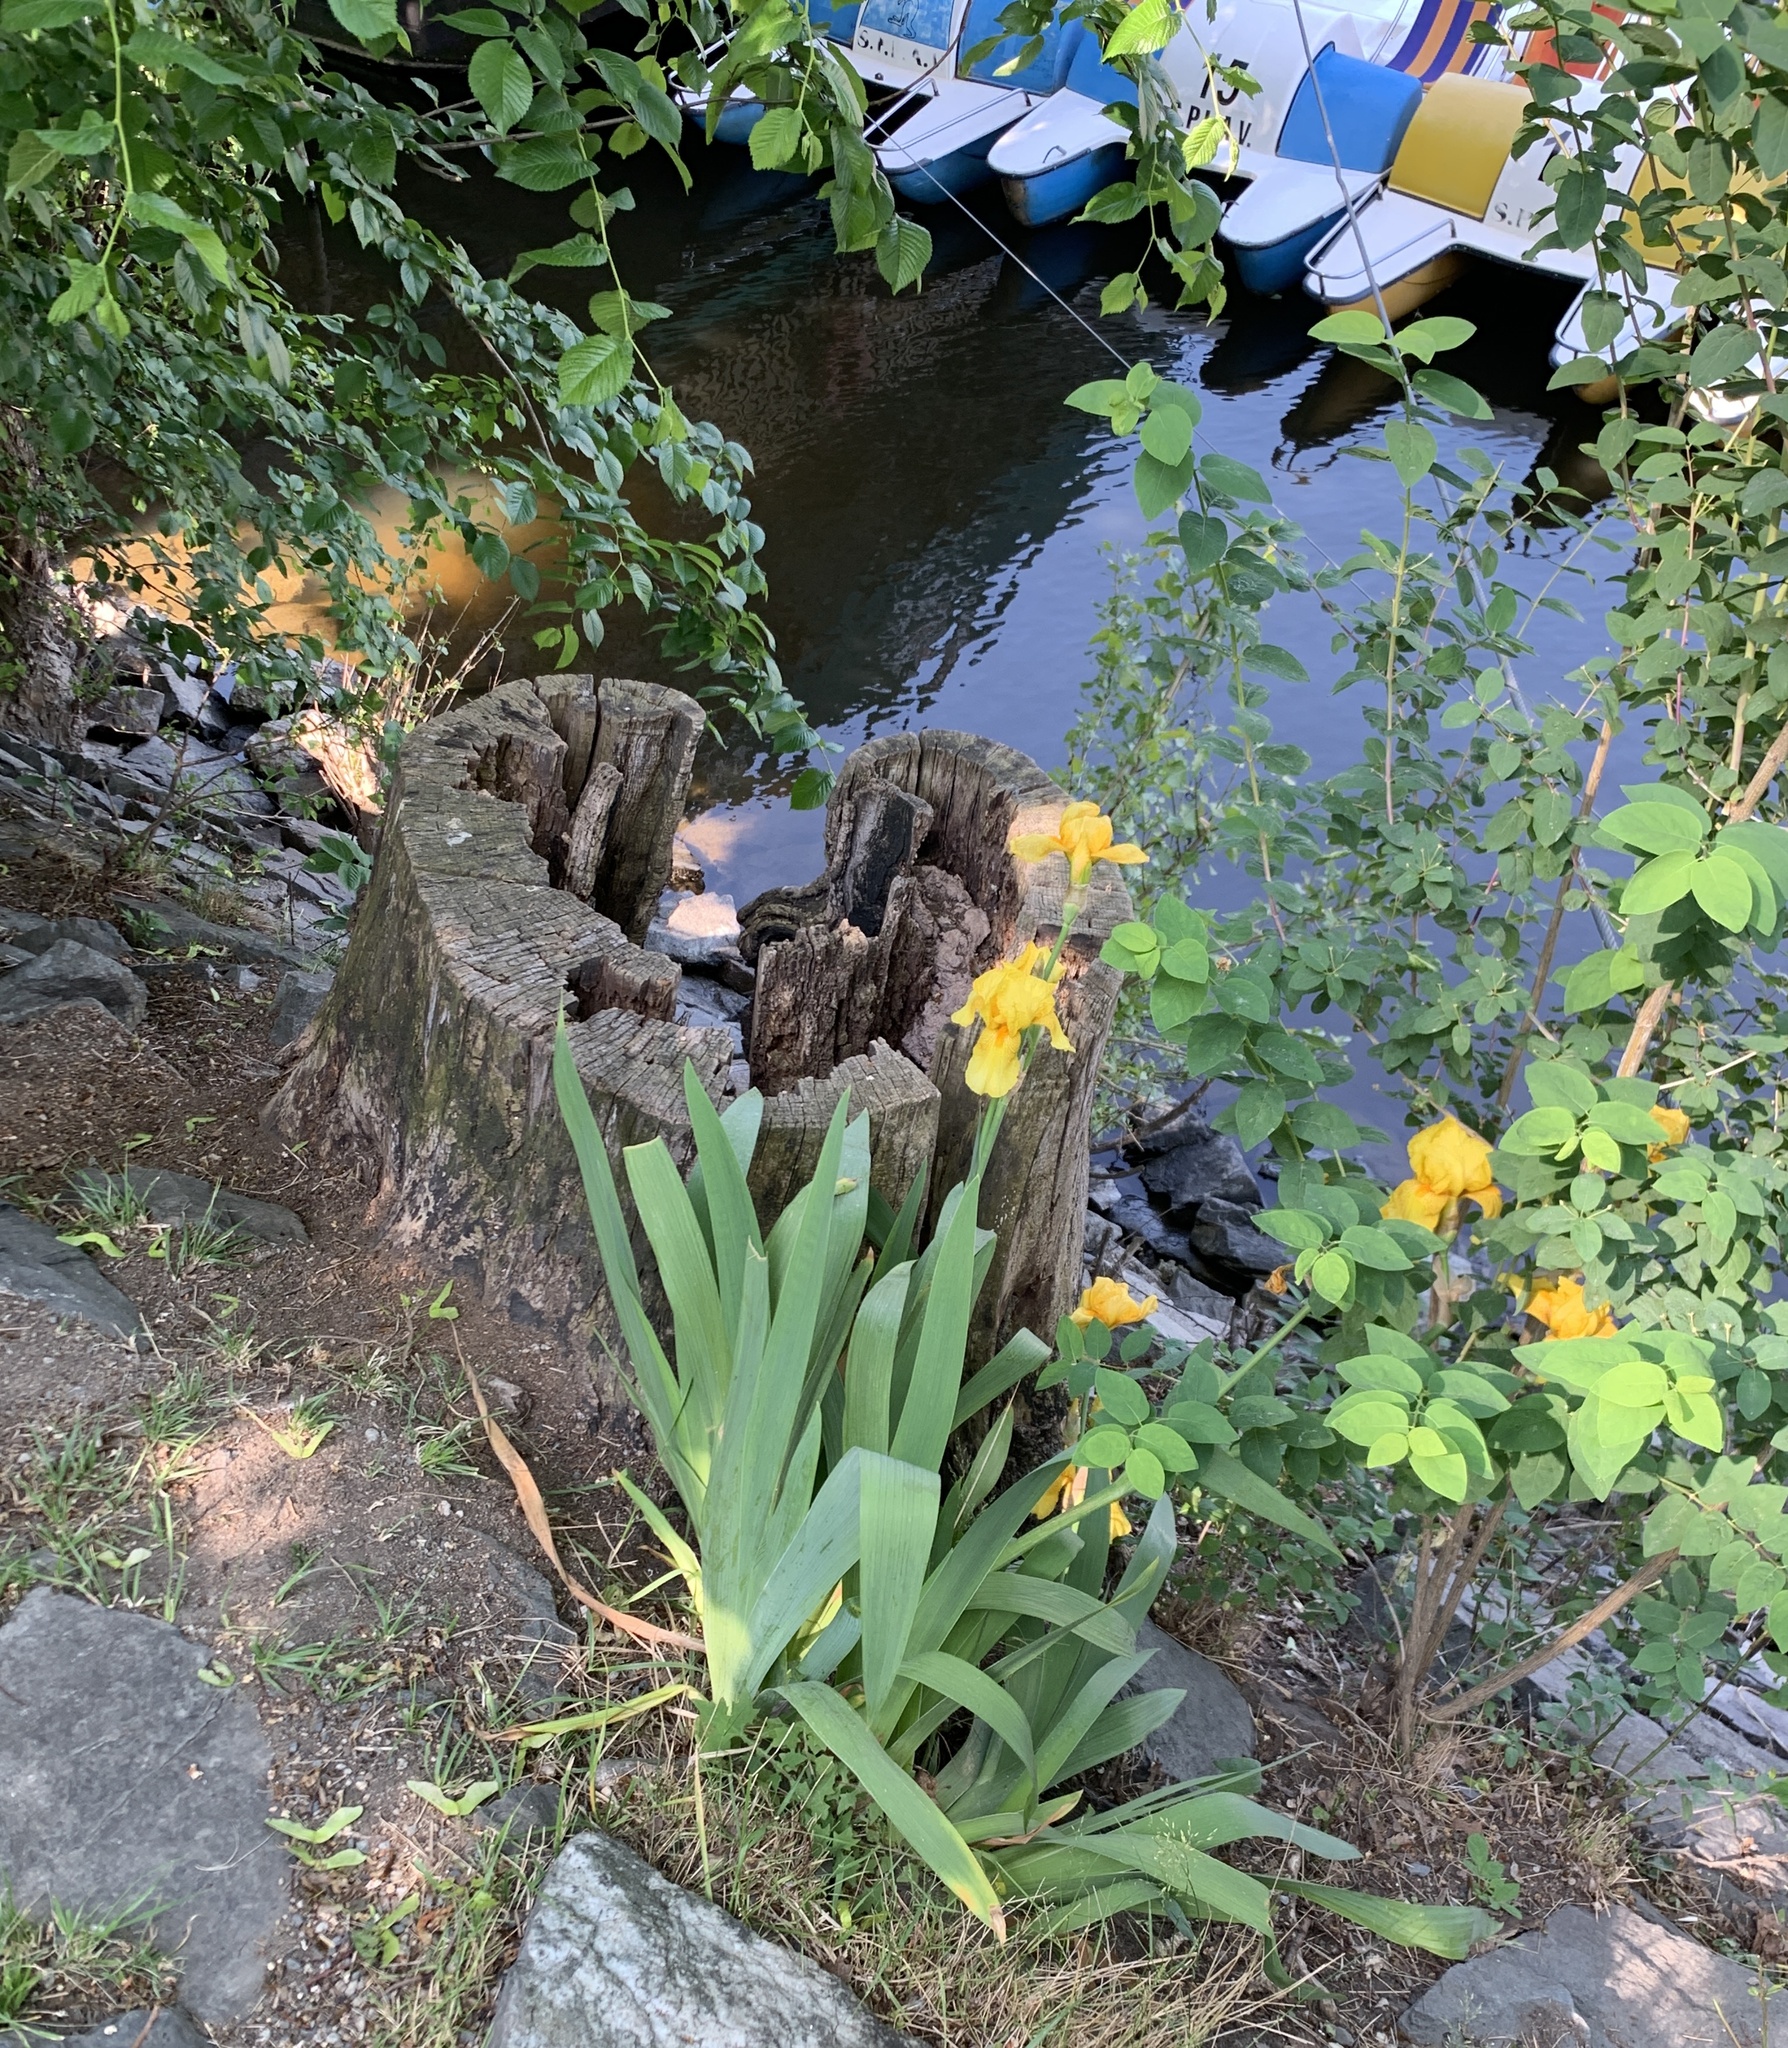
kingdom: Plantae
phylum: Tracheophyta
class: Liliopsida
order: Asparagales
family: Iridaceae
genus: Iris
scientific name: Iris hybrida
